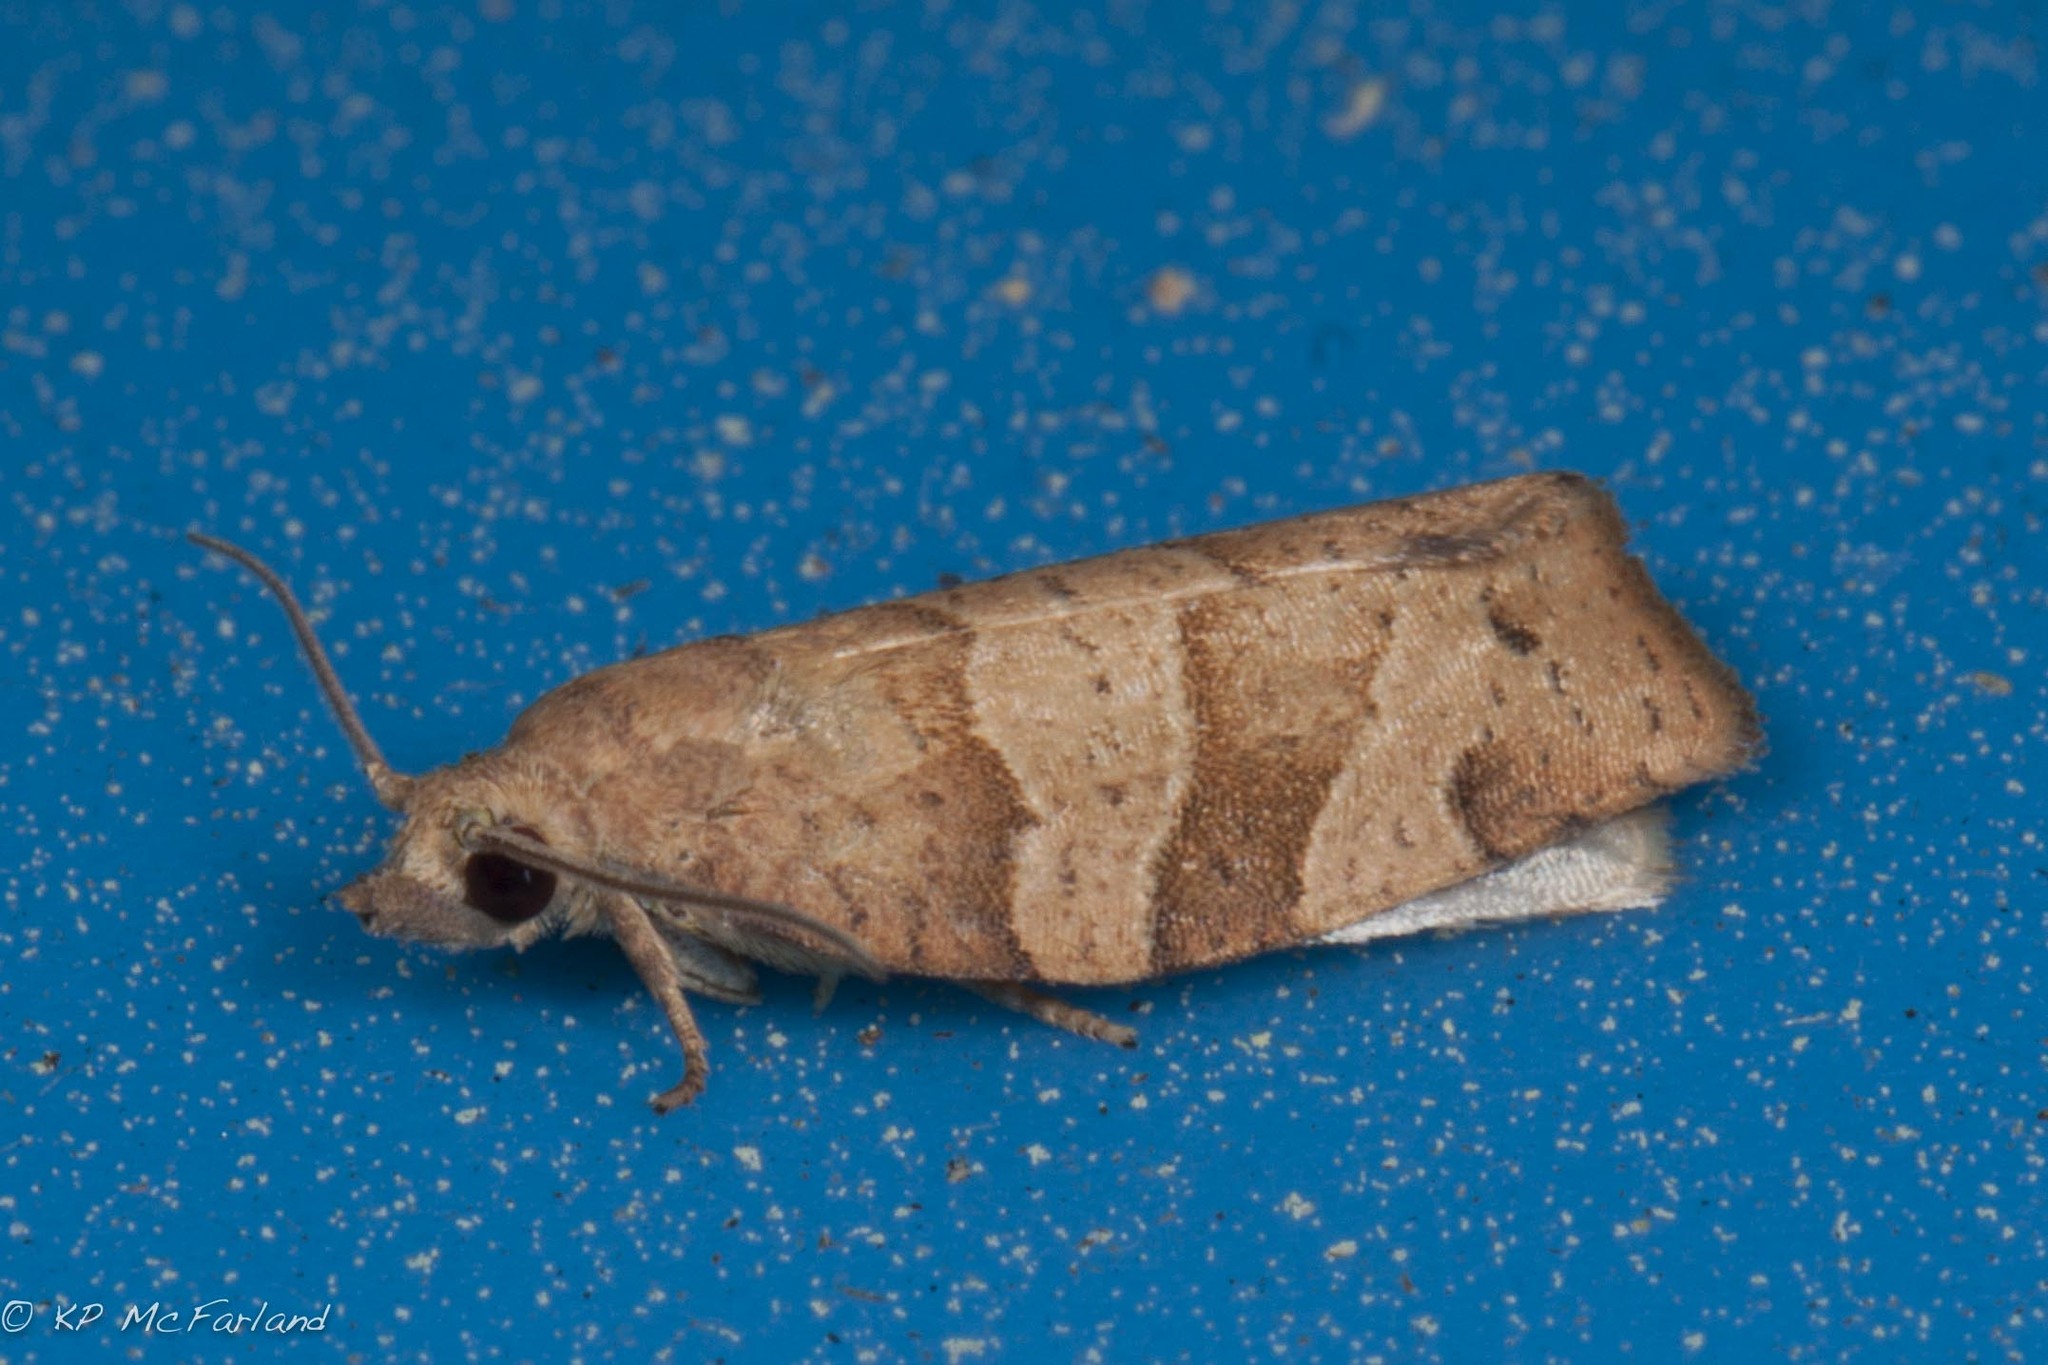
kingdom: Animalia
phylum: Arthropoda
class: Insecta
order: Lepidoptera
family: Tortricidae
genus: Pandemis
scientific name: Pandemis lamprosana
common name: Woodgrain leafroller moth
